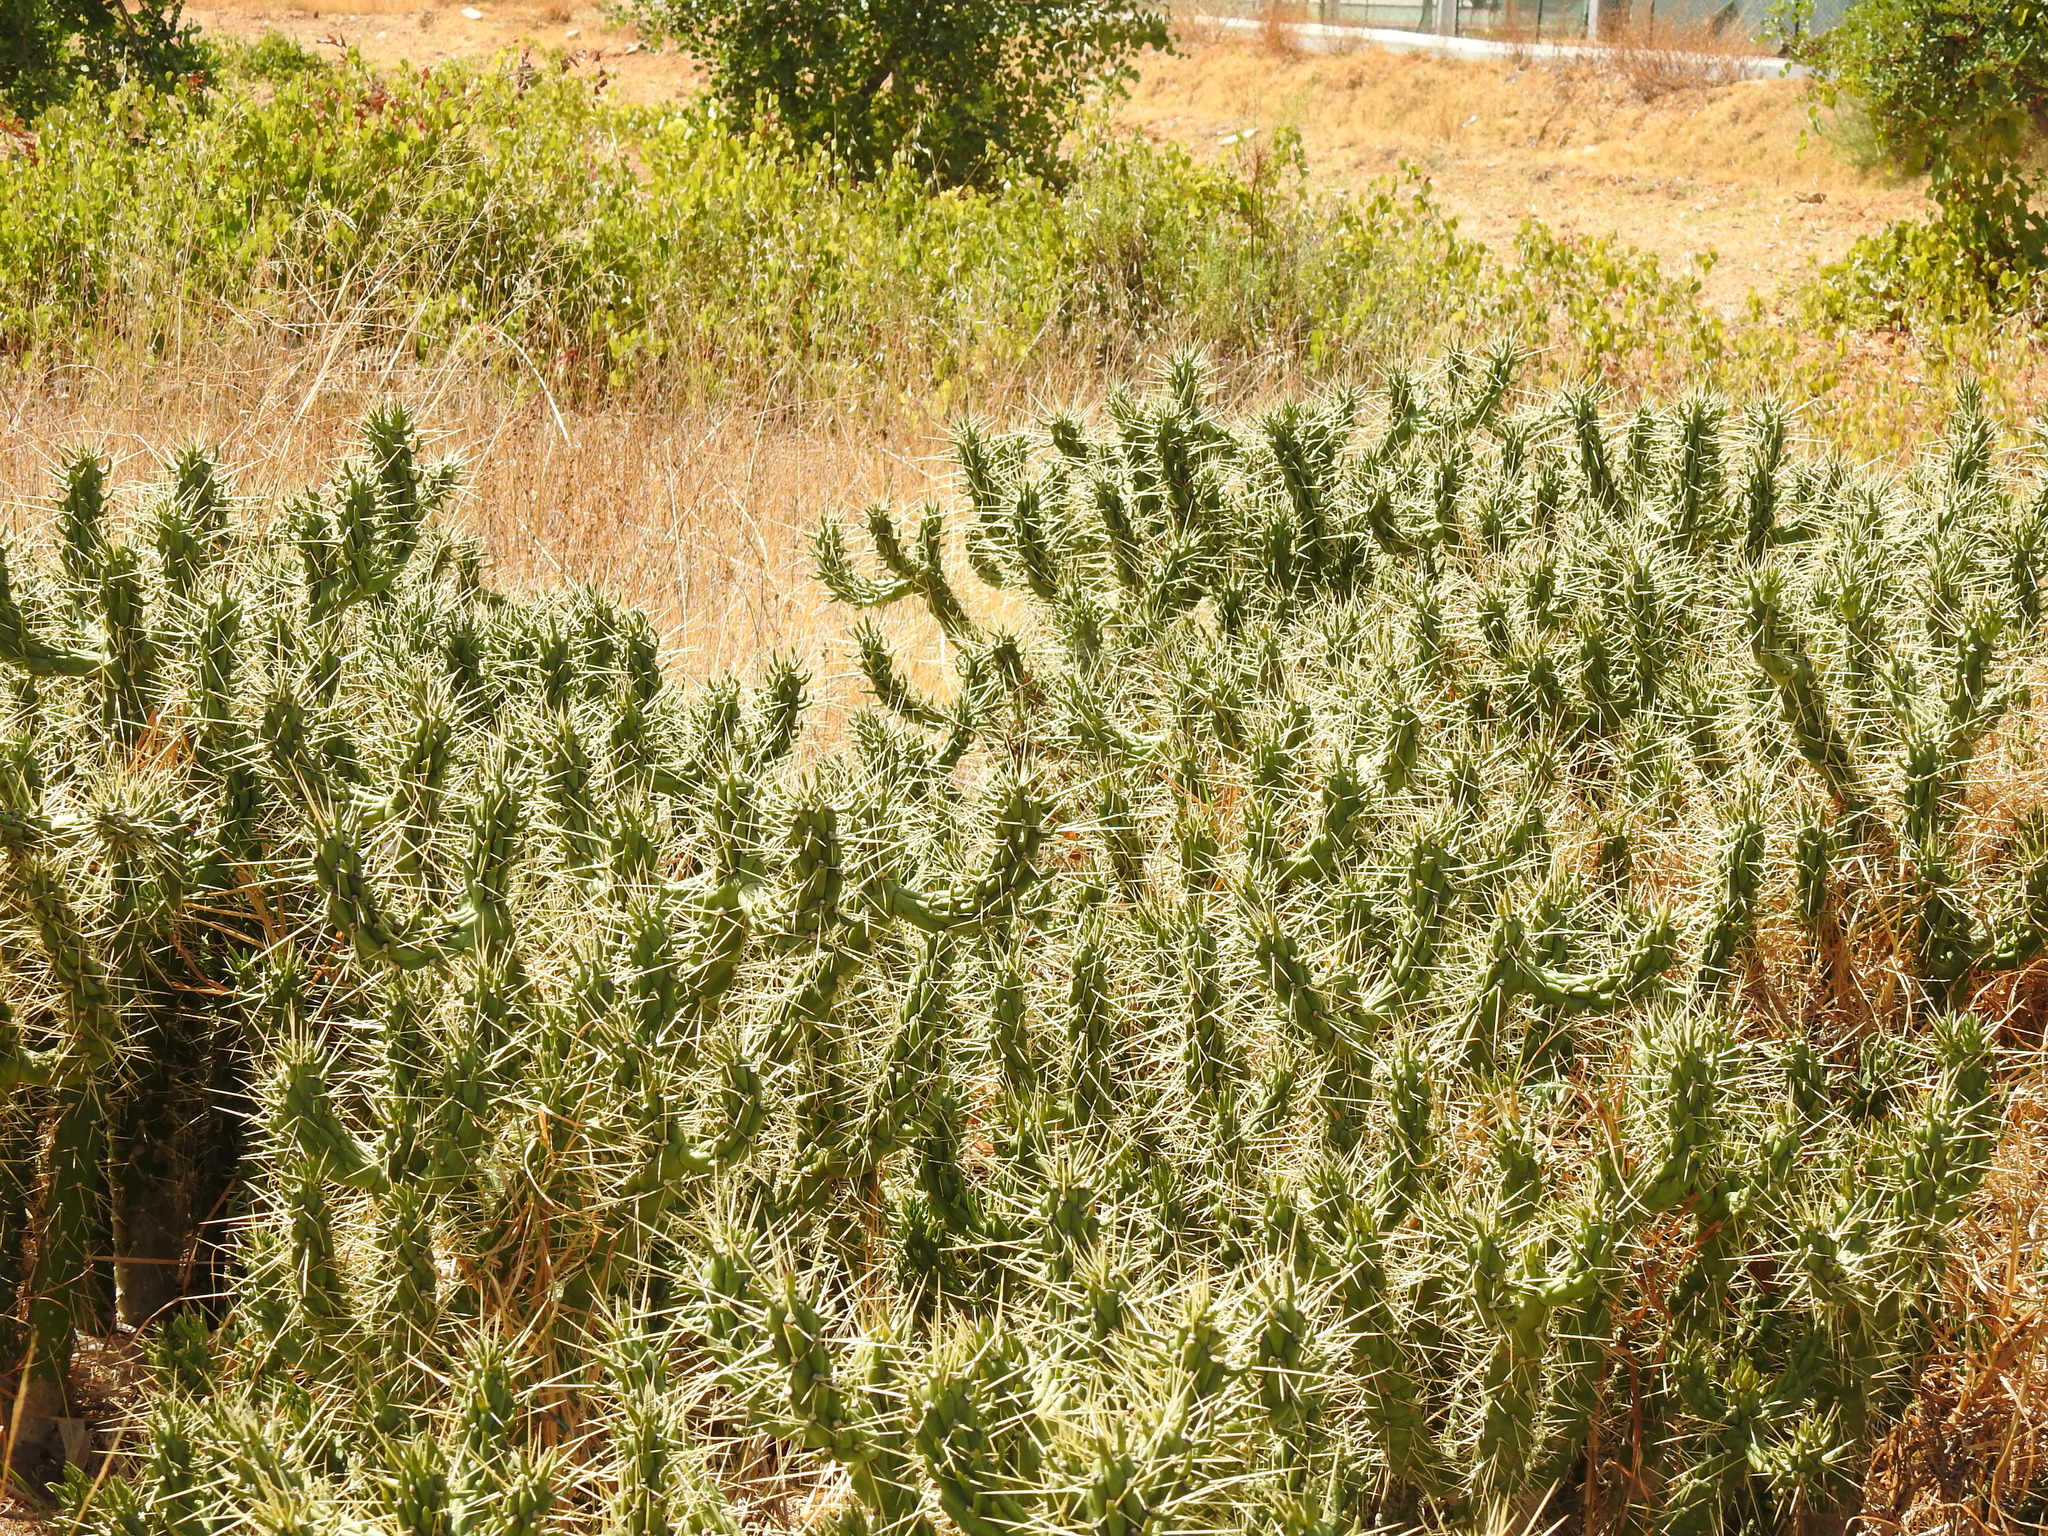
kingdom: Plantae
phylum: Tracheophyta
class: Magnoliopsida
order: Caryophyllales
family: Cactaceae
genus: Austrocylindropuntia
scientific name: Austrocylindropuntia subulata
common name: Eve's needle cactus
